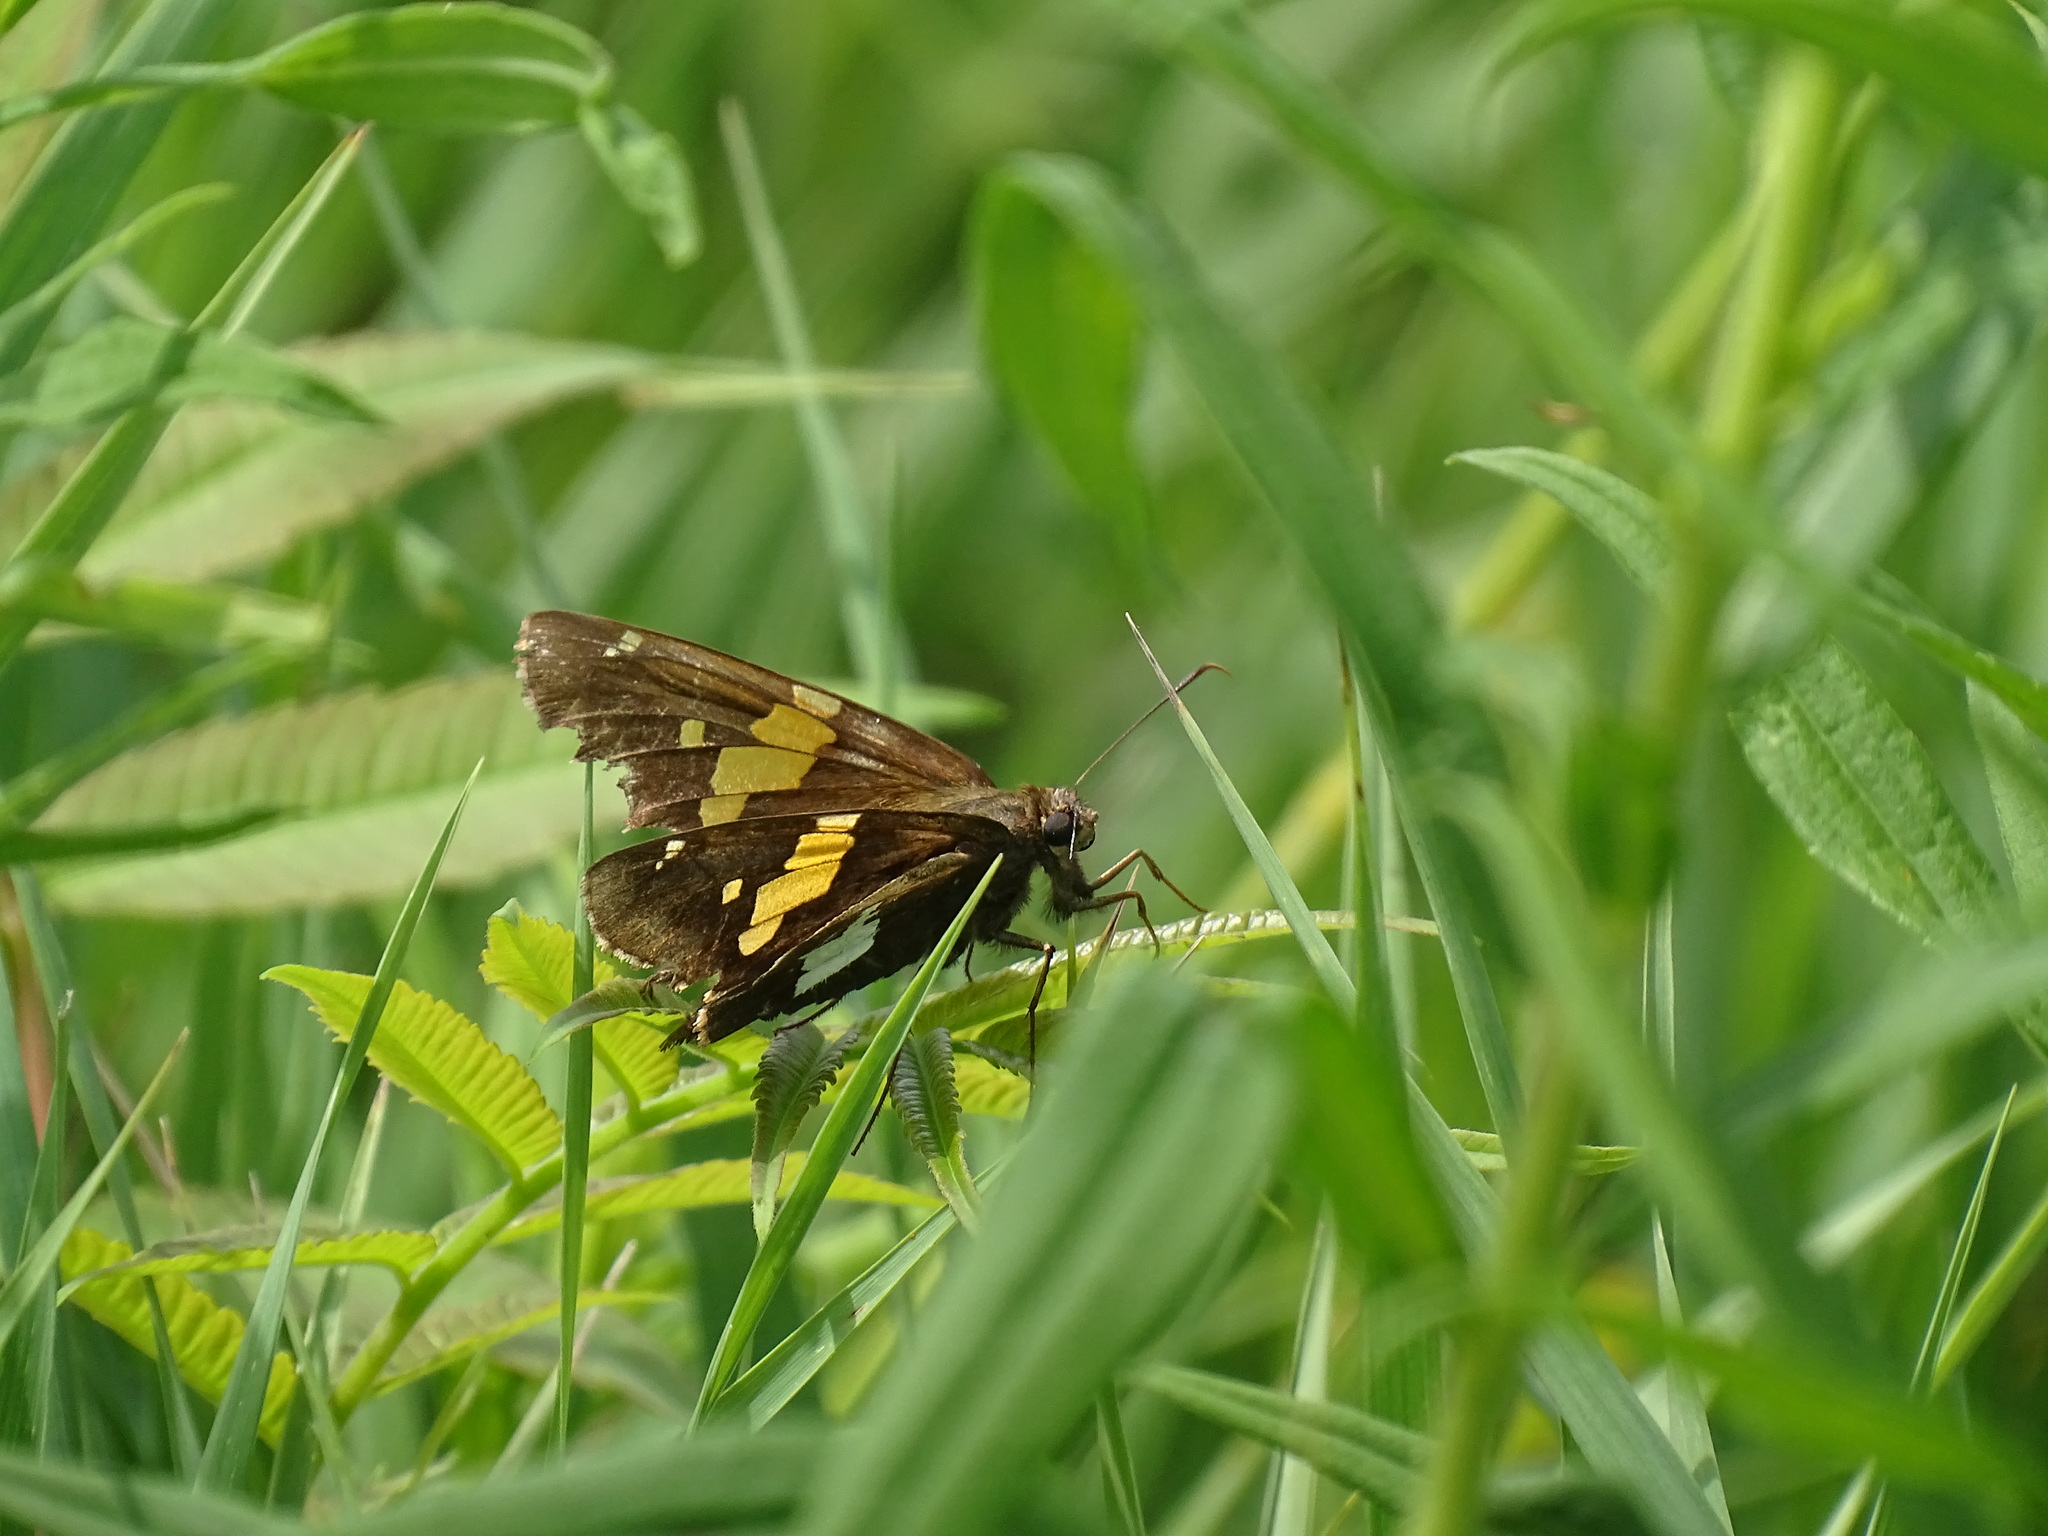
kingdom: Animalia
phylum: Arthropoda
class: Insecta
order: Lepidoptera
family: Hesperiidae
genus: Epargyreus
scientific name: Epargyreus clarus
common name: Silver-spotted skipper
